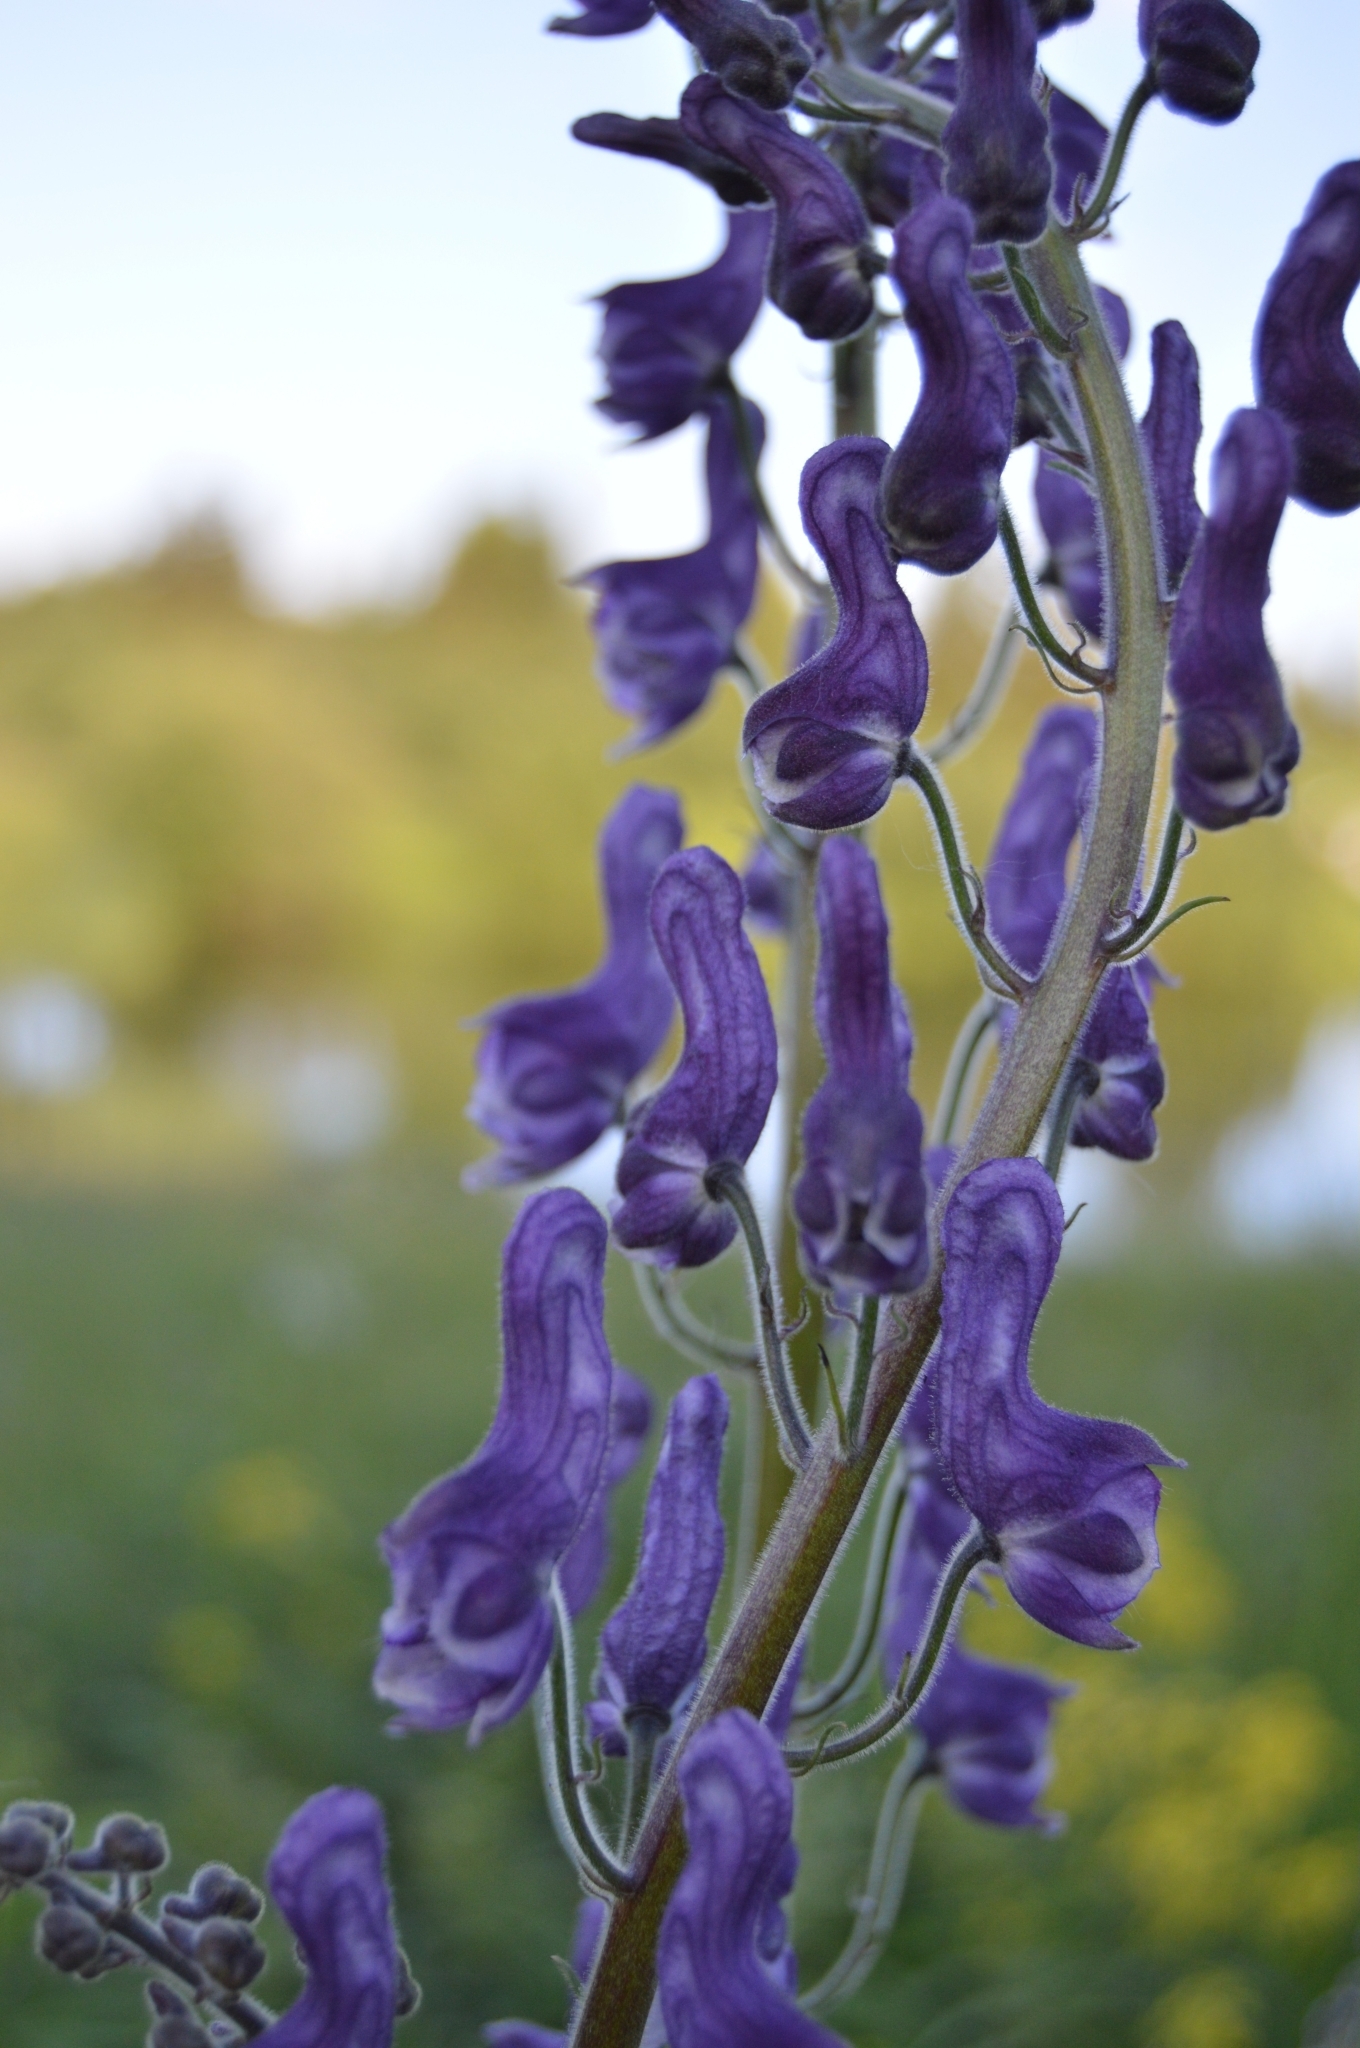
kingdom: Plantae
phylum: Tracheophyta
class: Magnoliopsida
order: Ranunculales
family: Ranunculaceae
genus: Aconitum
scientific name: Aconitum septentrionale
